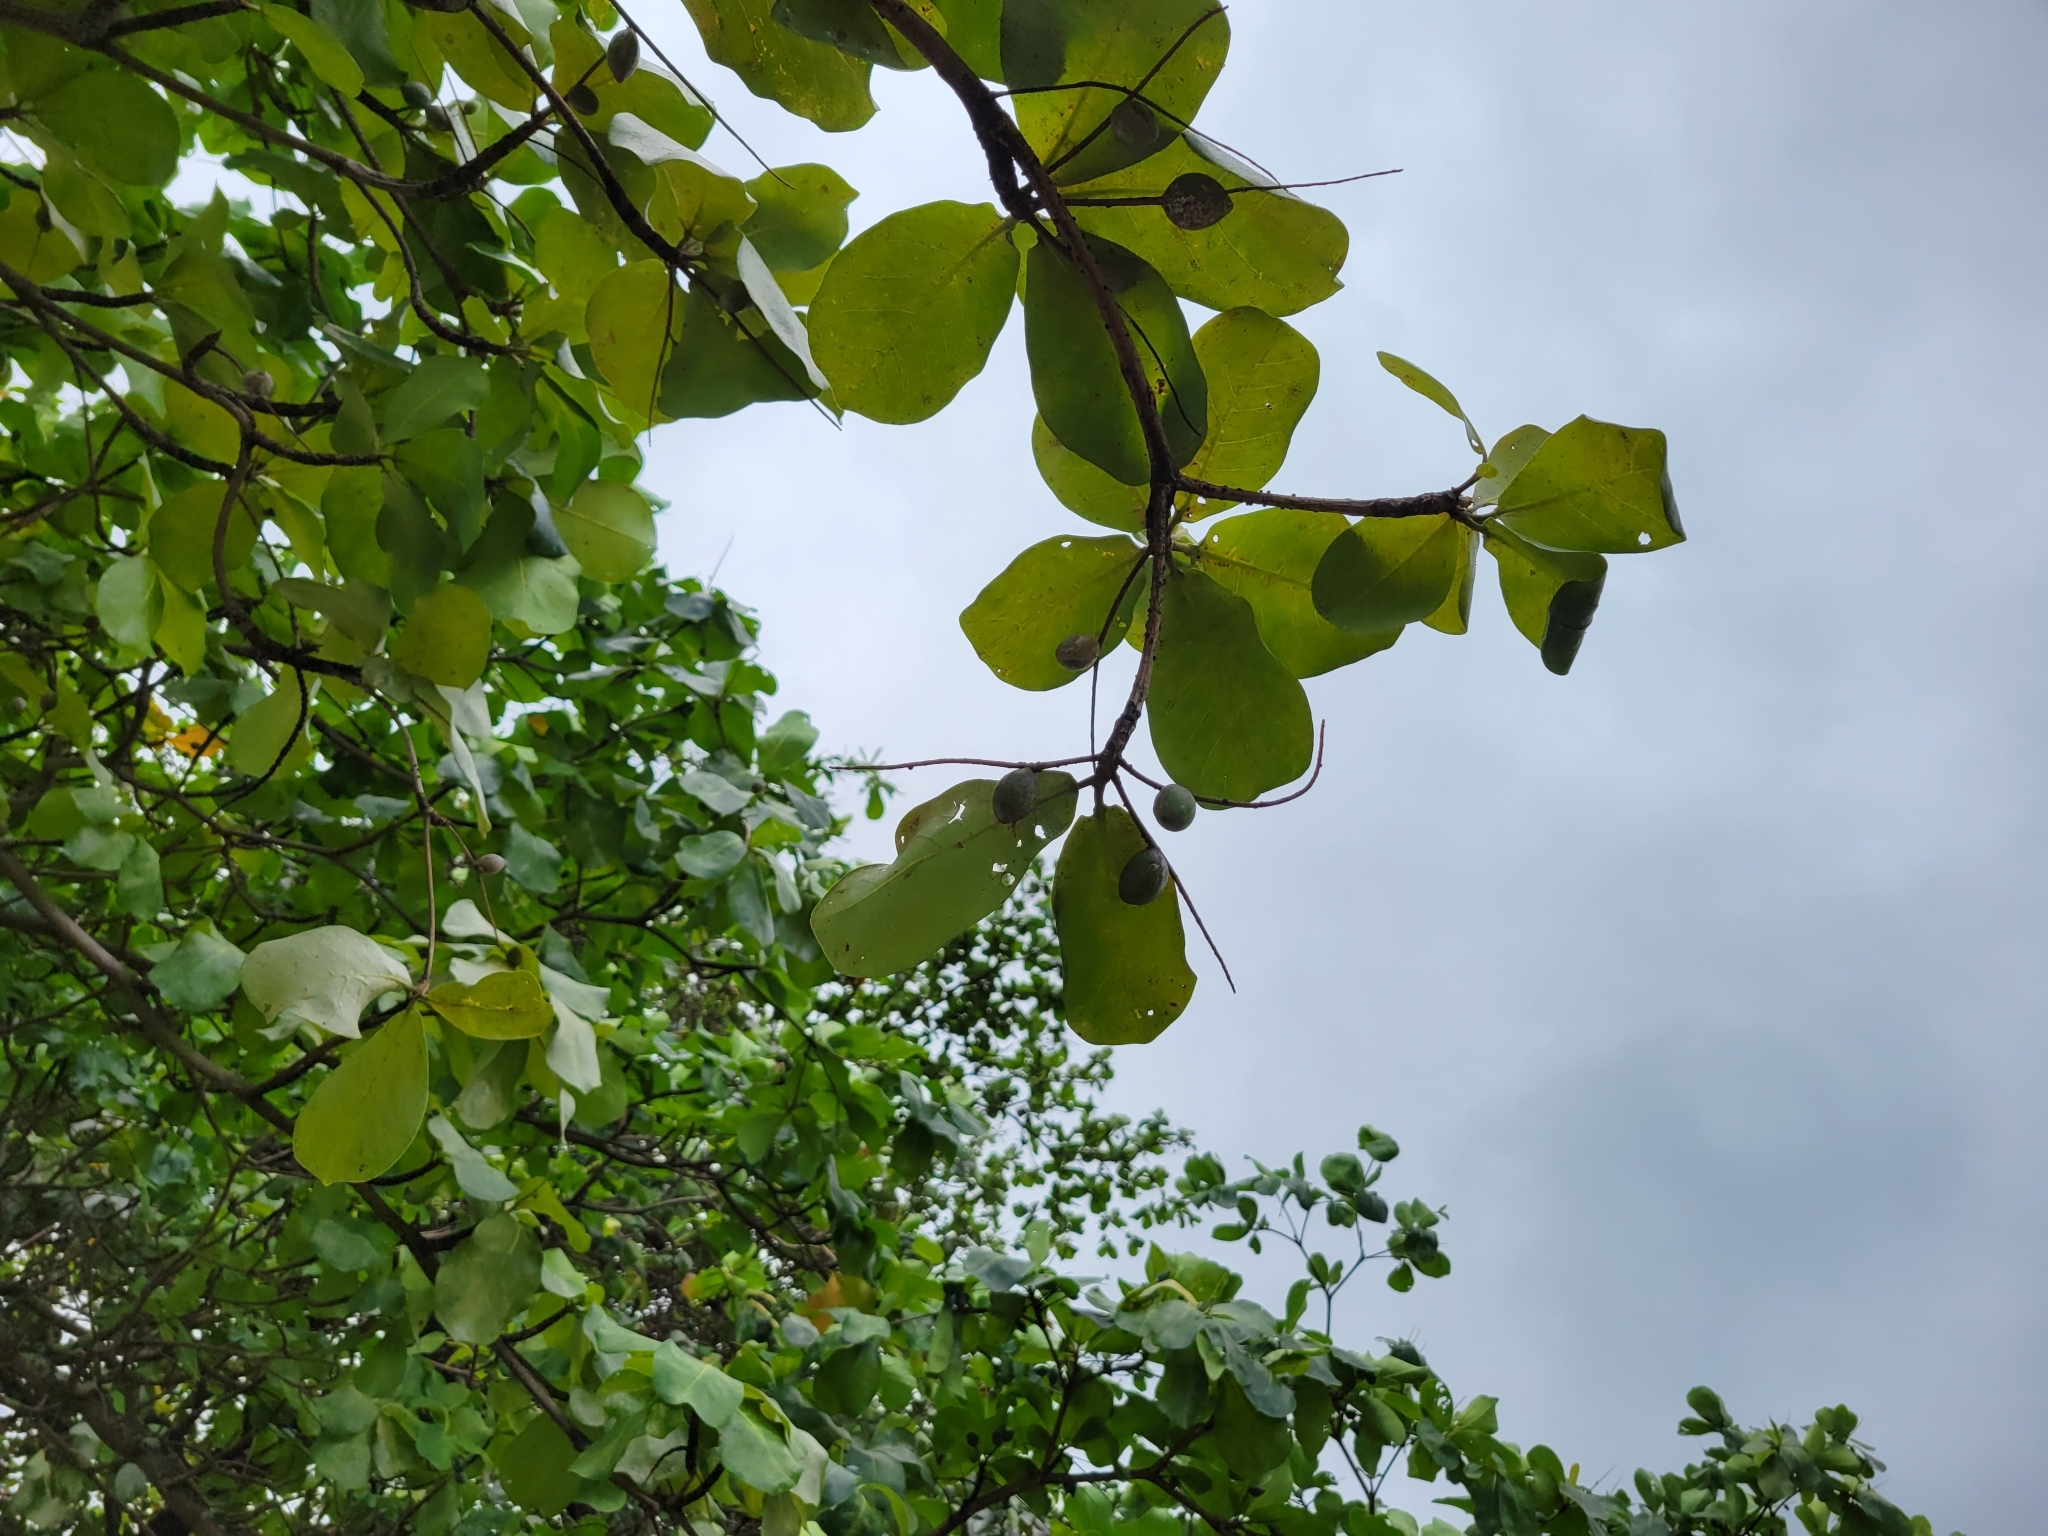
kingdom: Plantae
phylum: Tracheophyta
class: Magnoliopsida
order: Myrtales
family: Combretaceae
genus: Terminalia
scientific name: Terminalia catappa
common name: Tropical almond
